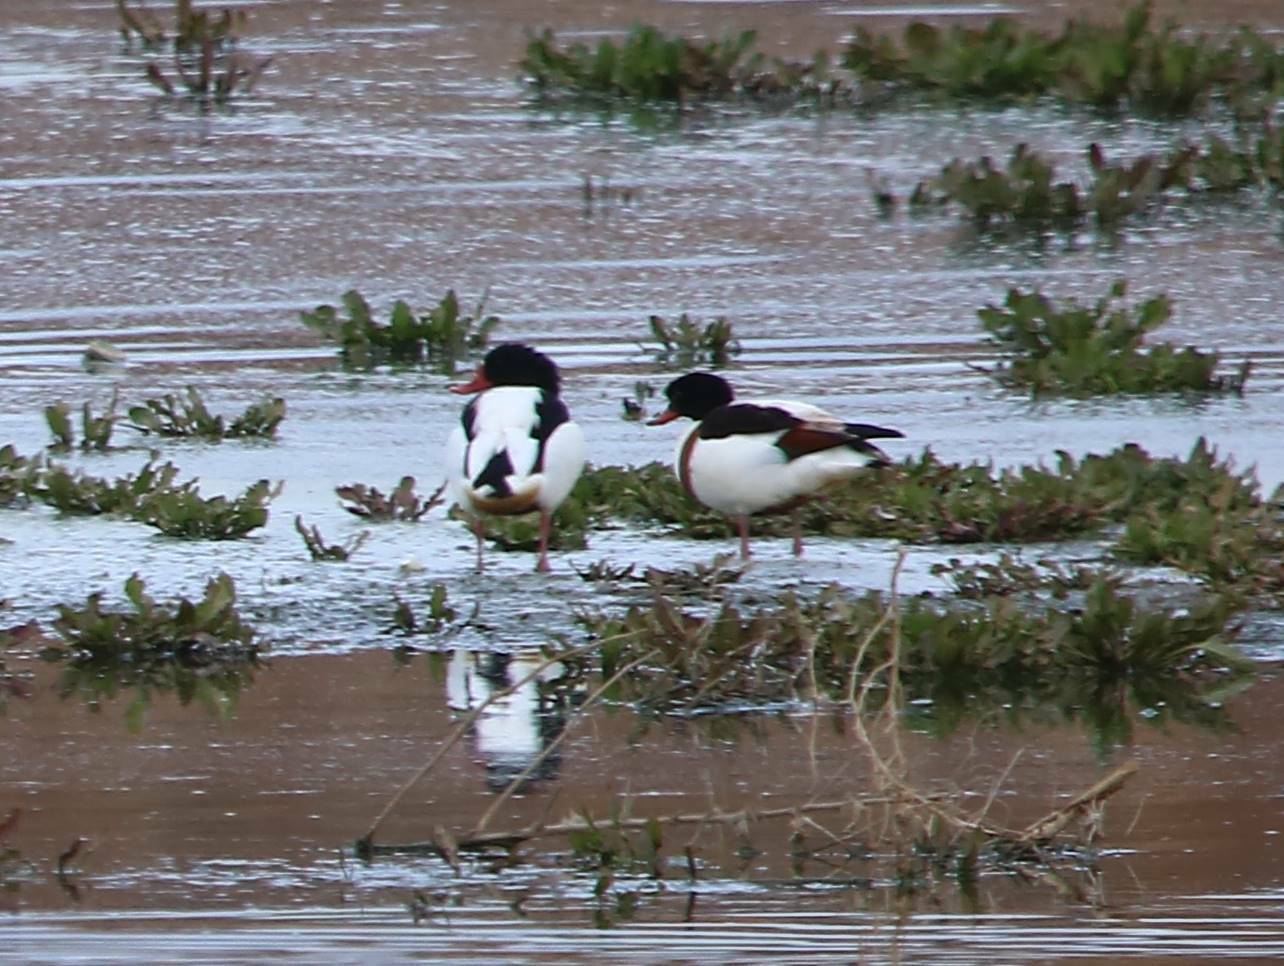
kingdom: Animalia
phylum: Chordata
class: Aves
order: Anseriformes
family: Anatidae
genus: Tadorna
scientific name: Tadorna tadorna
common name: Common shelduck
